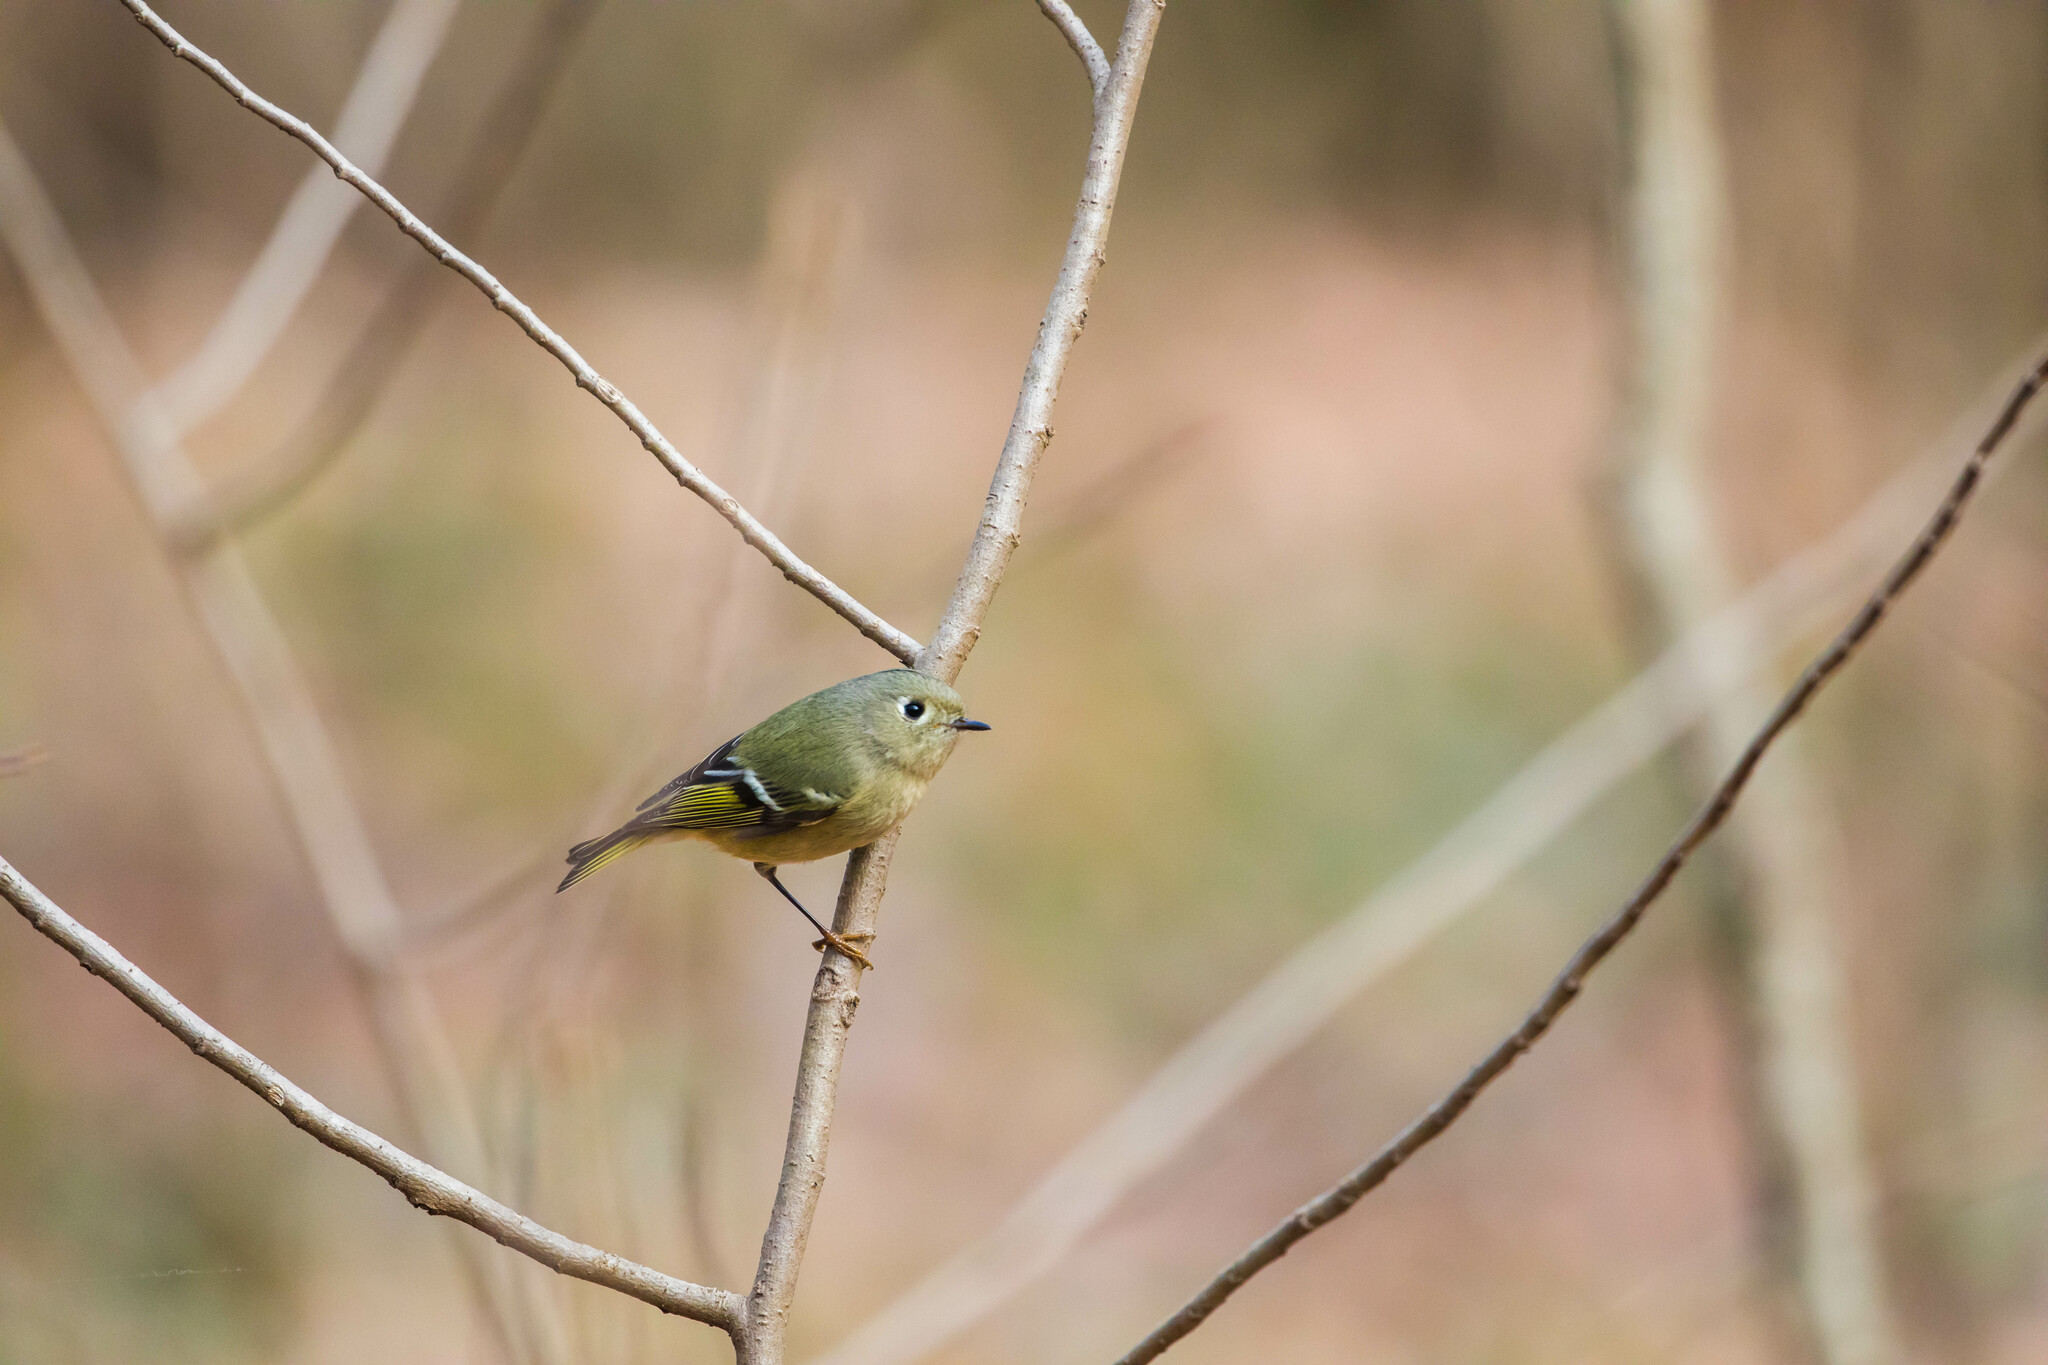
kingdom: Animalia
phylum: Chordata
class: Aves
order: Passeriformes
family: Regulidae
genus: Regulus
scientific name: Regulus calendula
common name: Ruby-crowned kinglet
